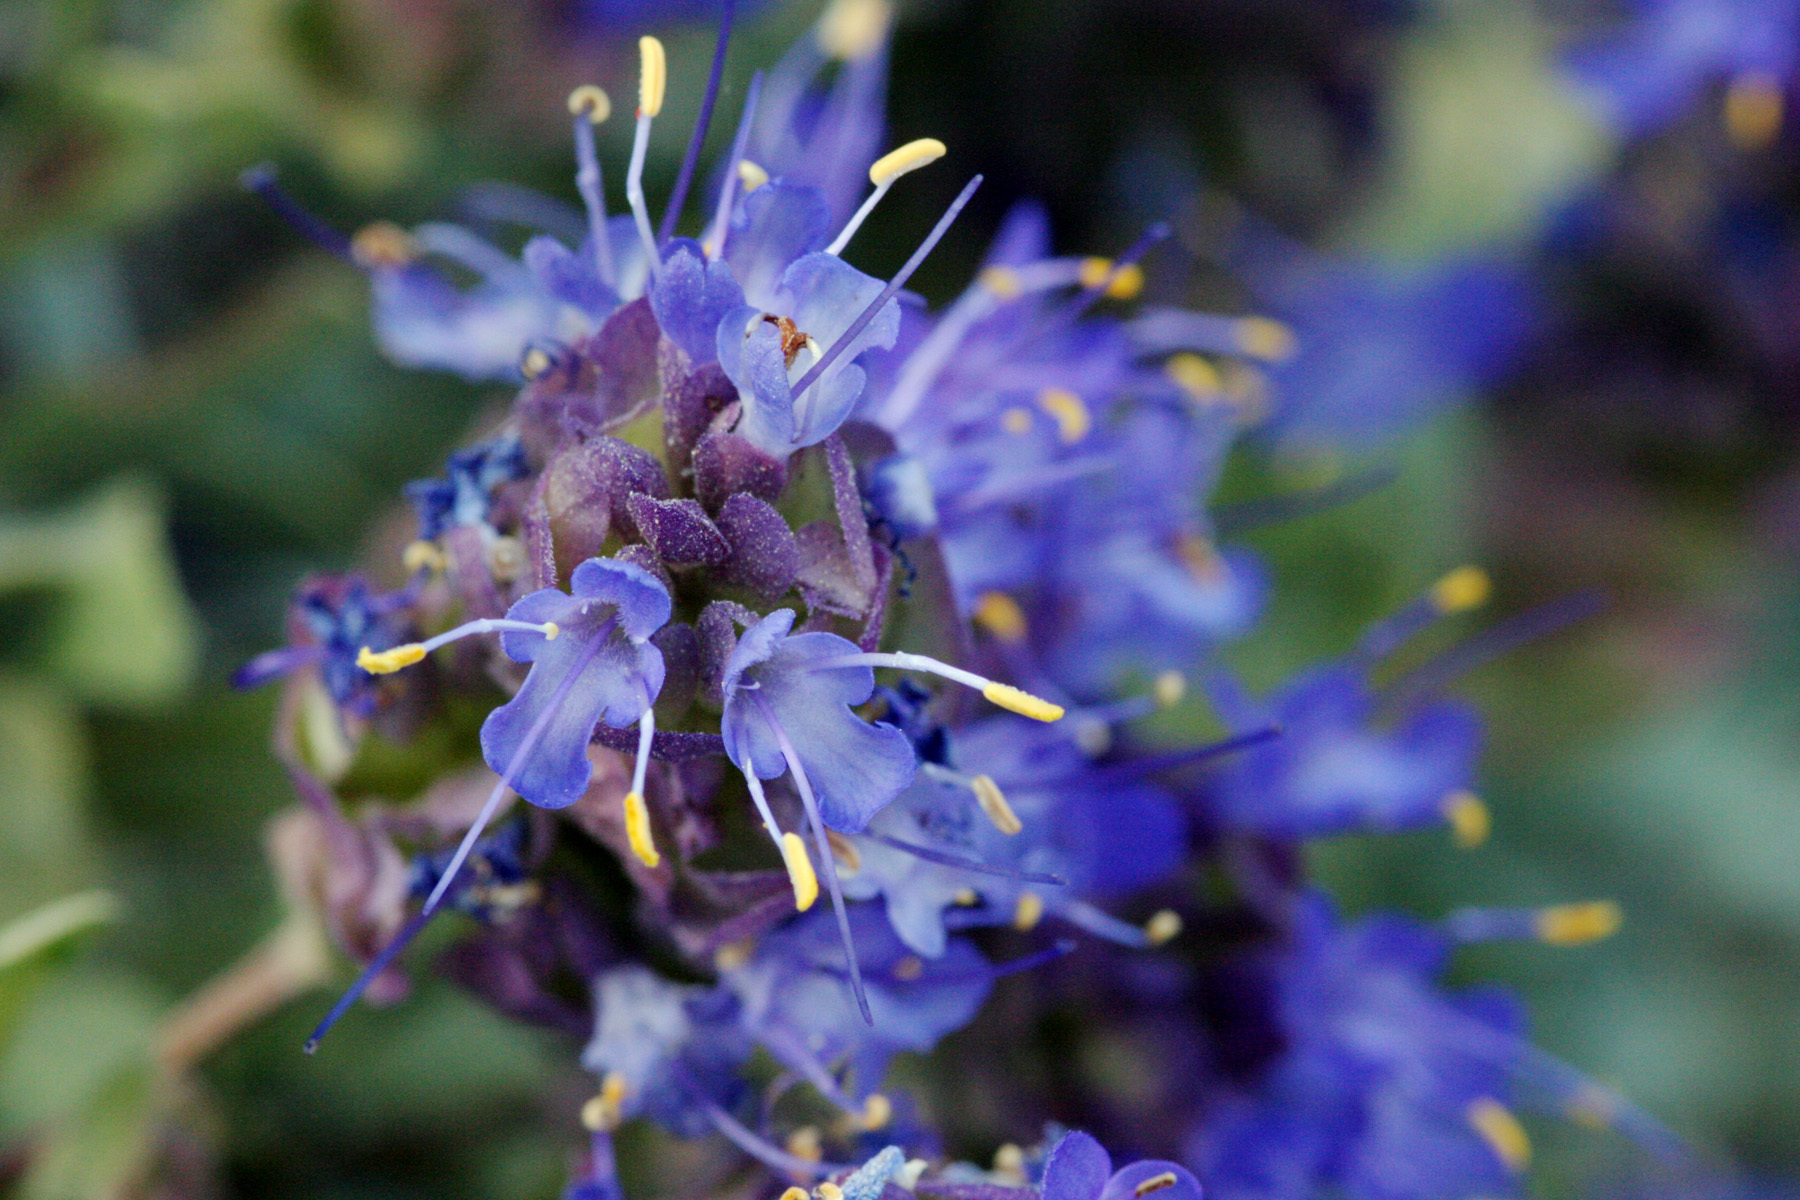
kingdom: Plantae
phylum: Tracheophyta
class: Magnoliopsida
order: Lamiales
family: Lamiaceae
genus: Salvia
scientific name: Salvia dorrii
